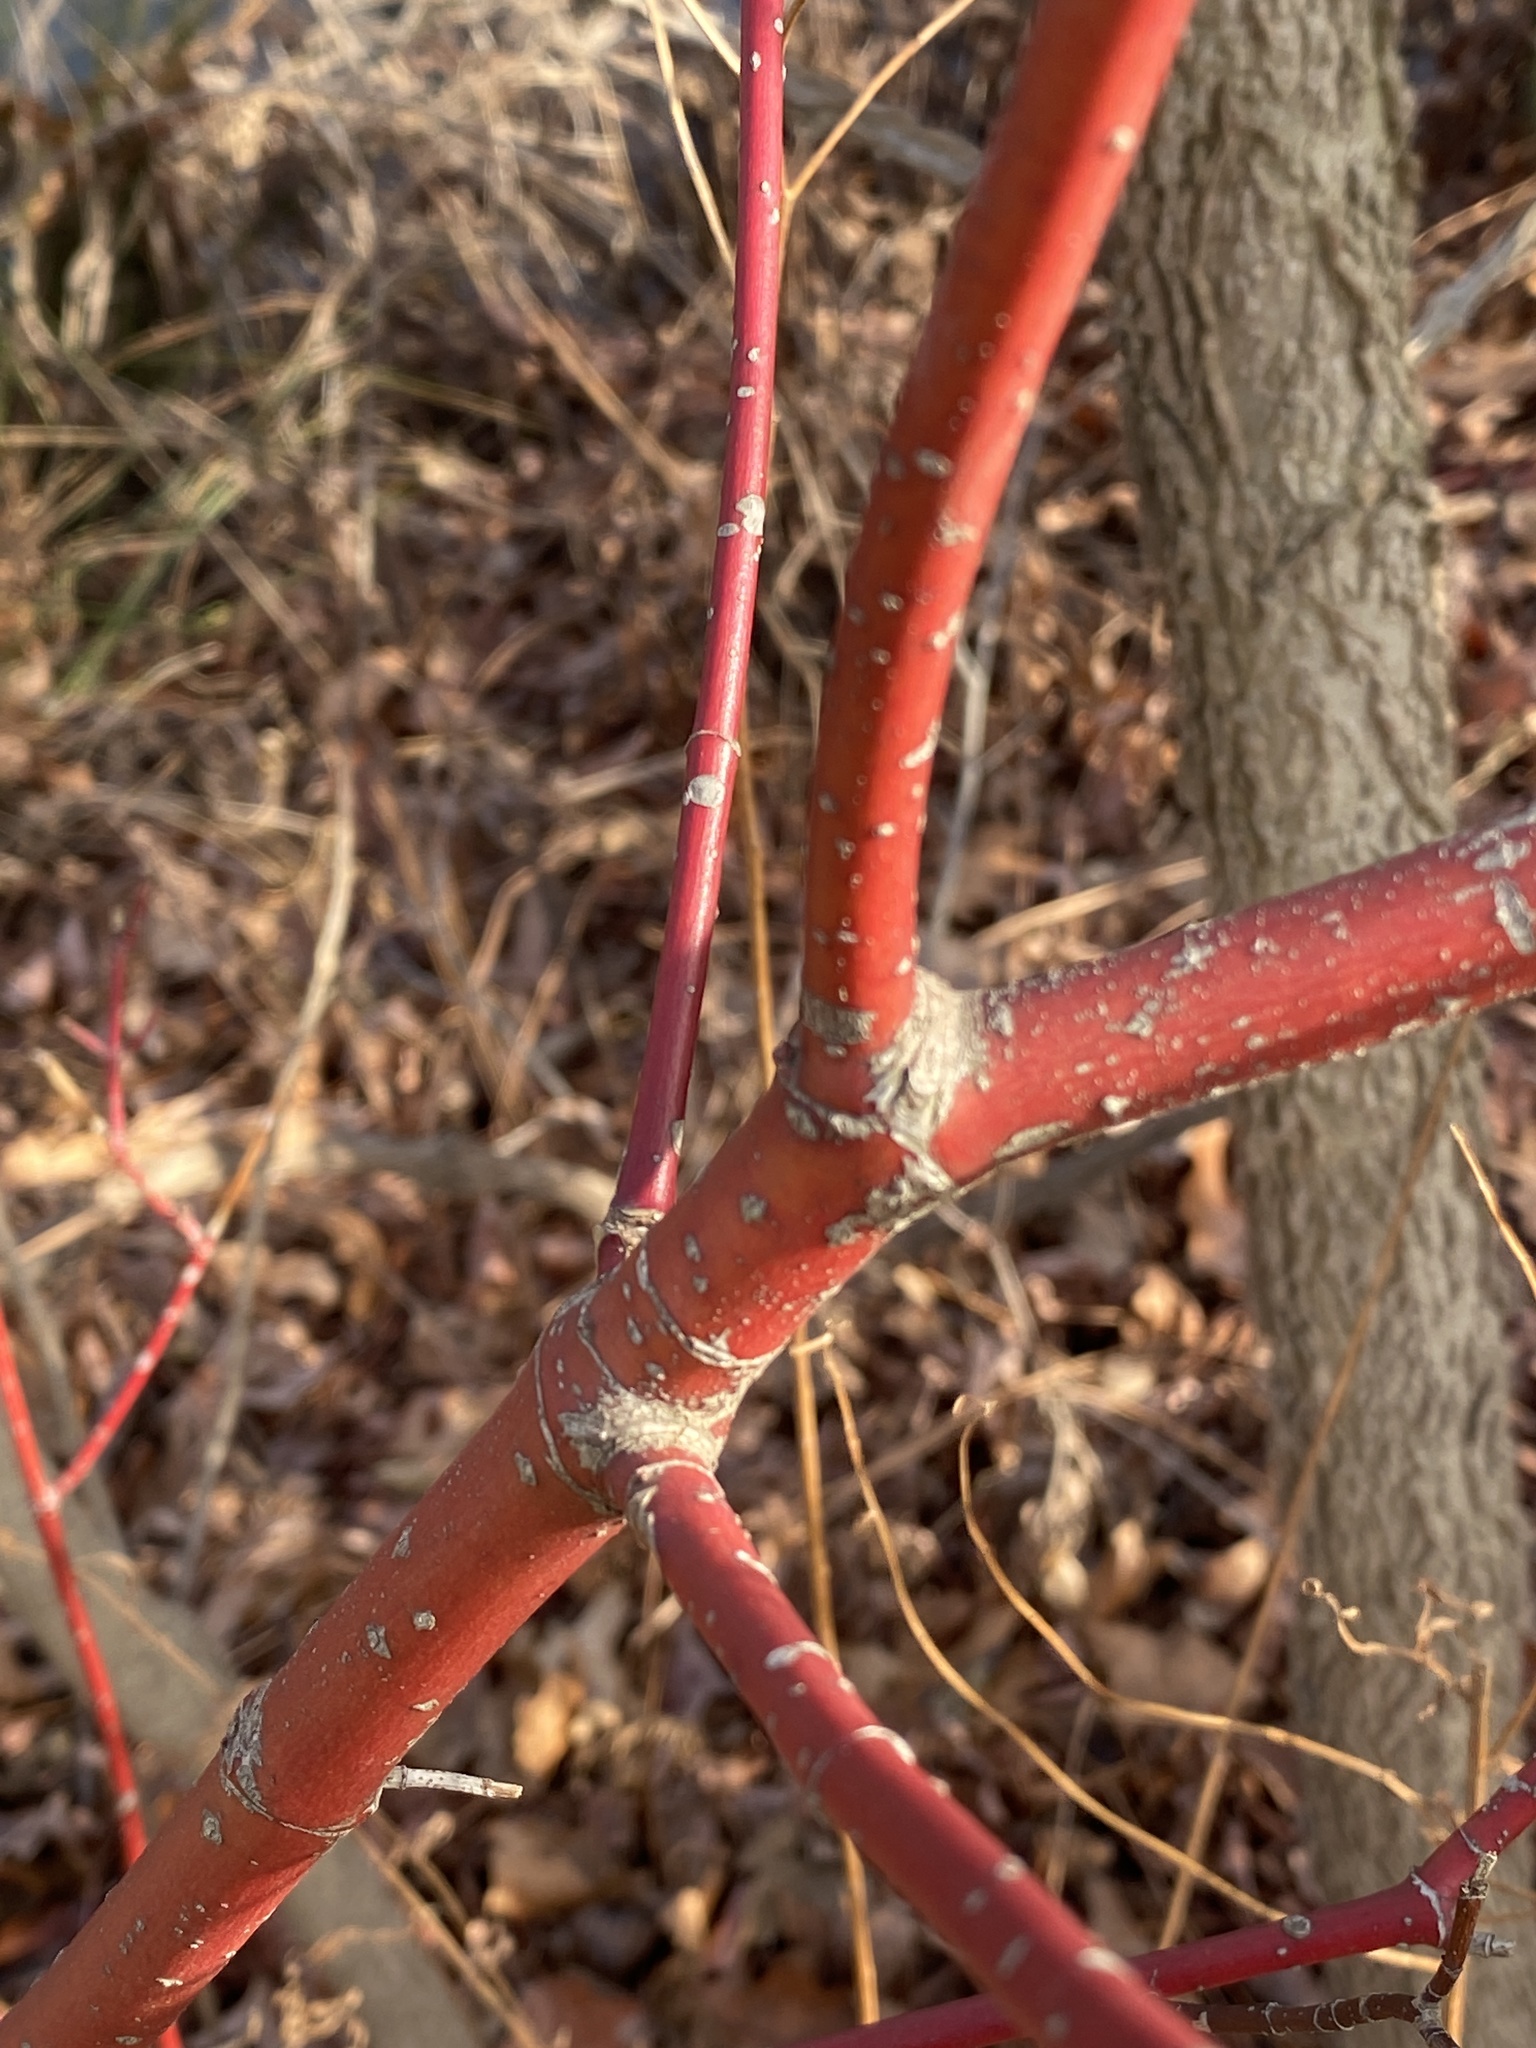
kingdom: Plantae
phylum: Tracheophyta
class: Magnoliopsida
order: Cornales
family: Cornaceae
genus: Cornus
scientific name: Cornus amomum
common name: Silky dogwood
